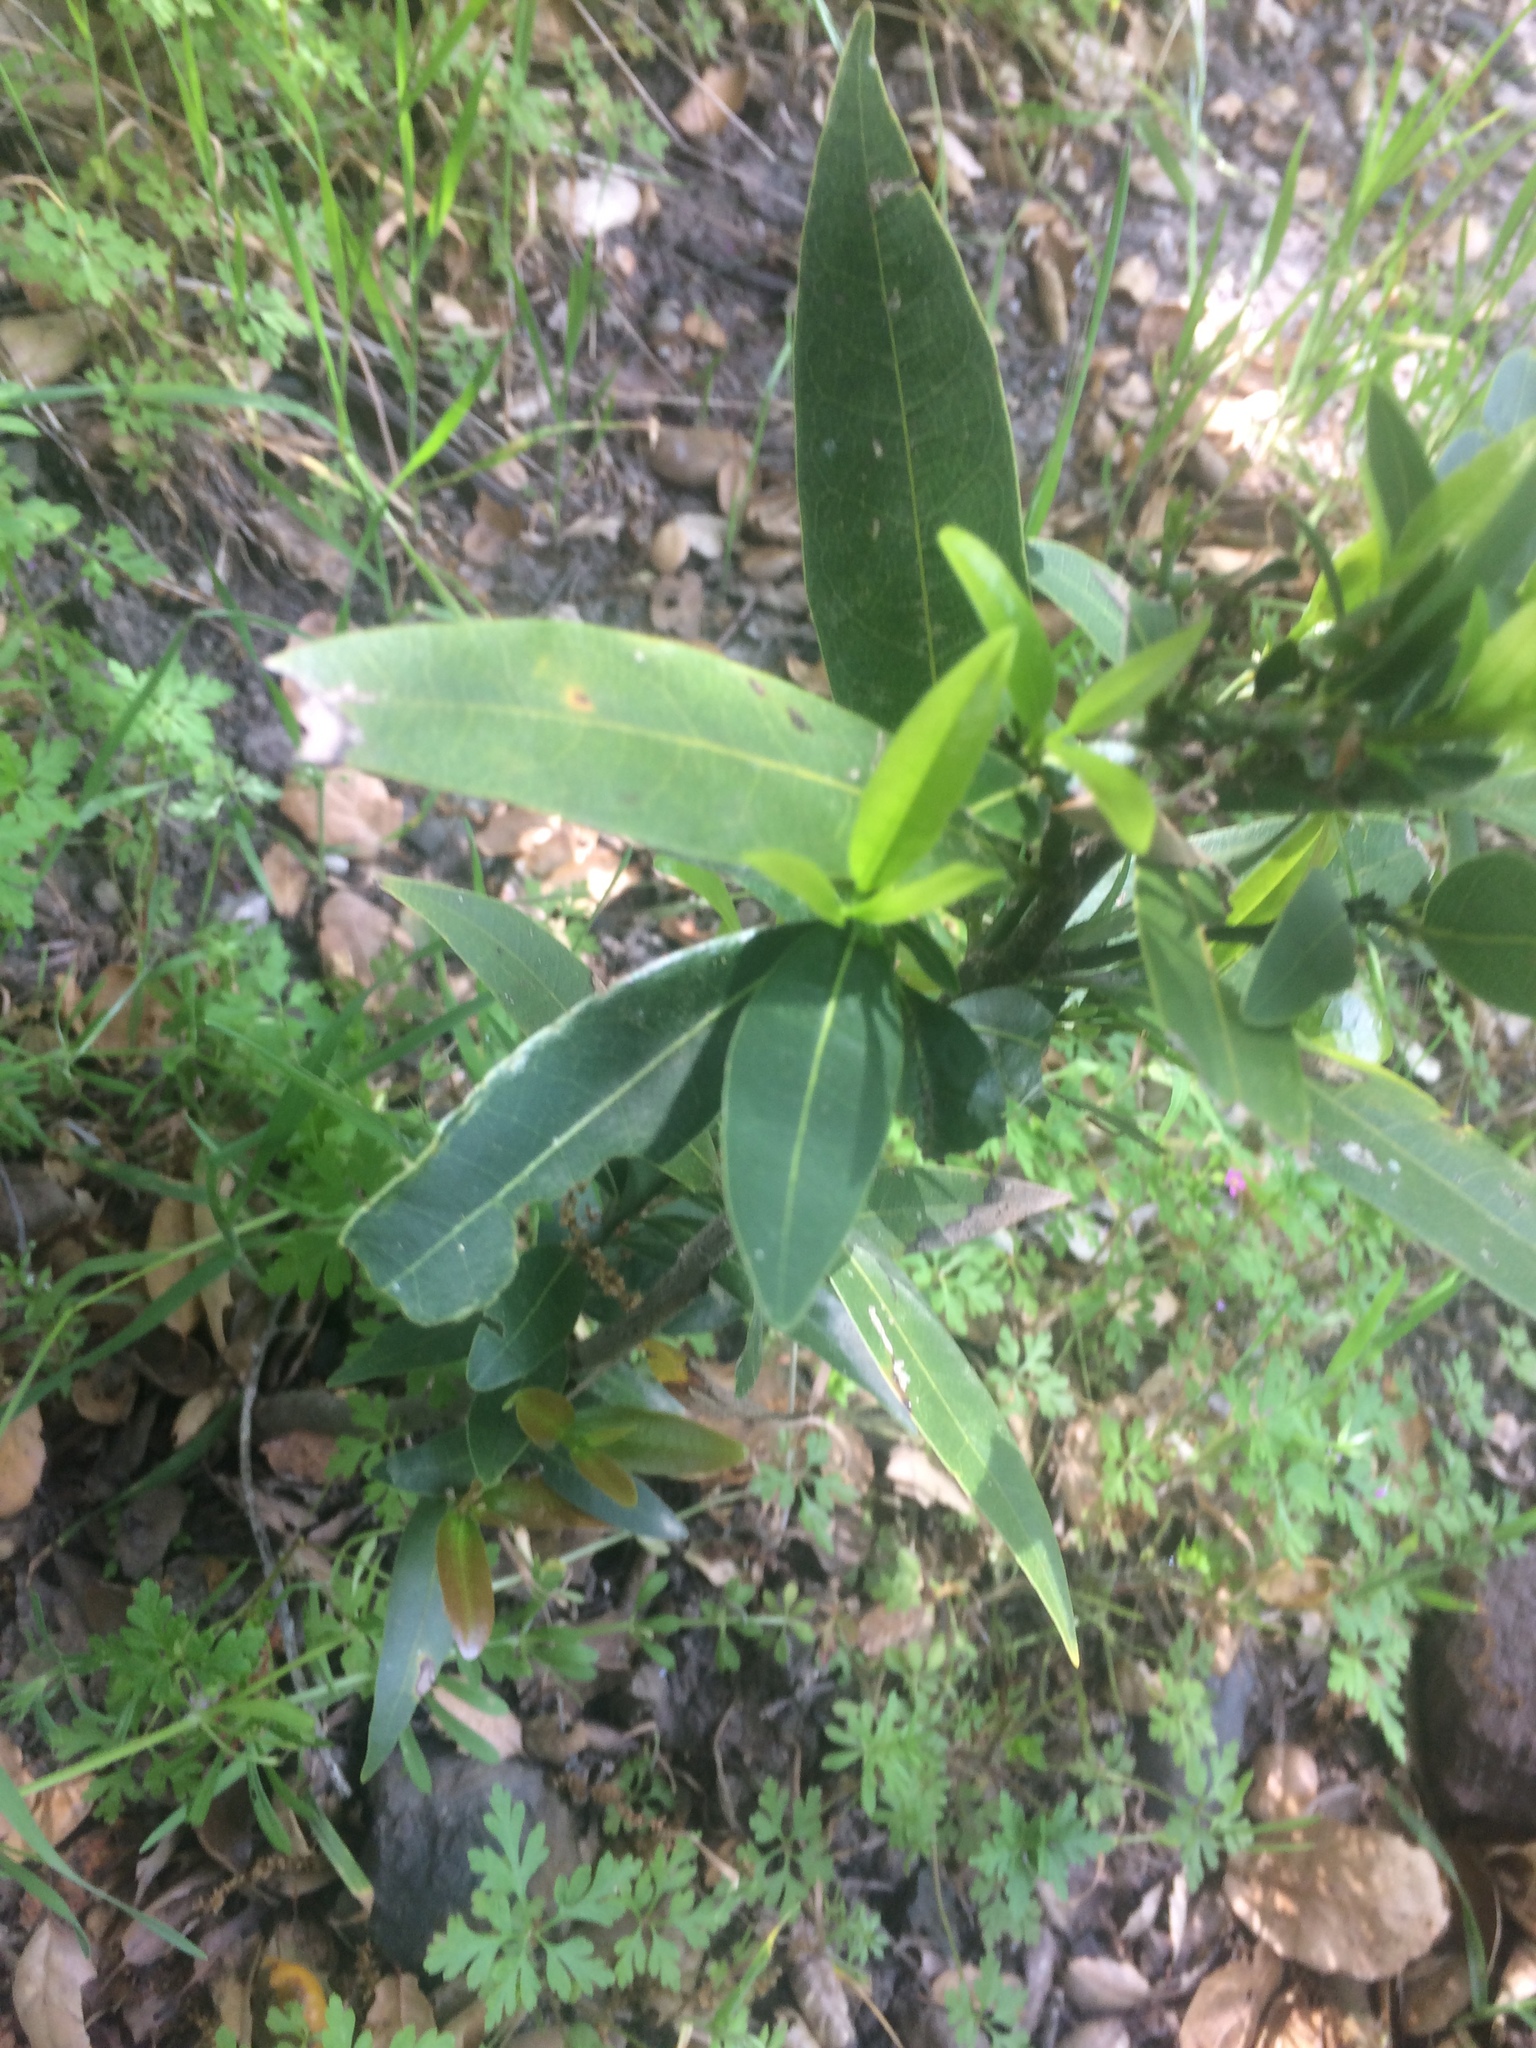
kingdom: Plantae
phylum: Tracheophyta
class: Magnoliopsida
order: Laurales
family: Lauraceae
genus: Umbellularia
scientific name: Umbellularia californica
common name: California bay
